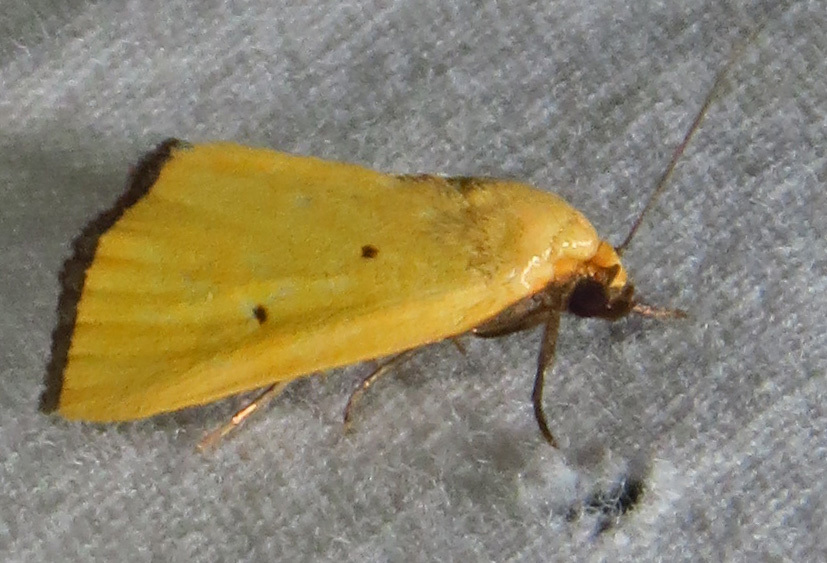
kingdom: Animalia
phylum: Arthropoda
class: Insecta
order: Lepidoptera
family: Noctuidae
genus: Marimatha
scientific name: Marimatha nigrofimbria
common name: Black-bordered lemon moth
